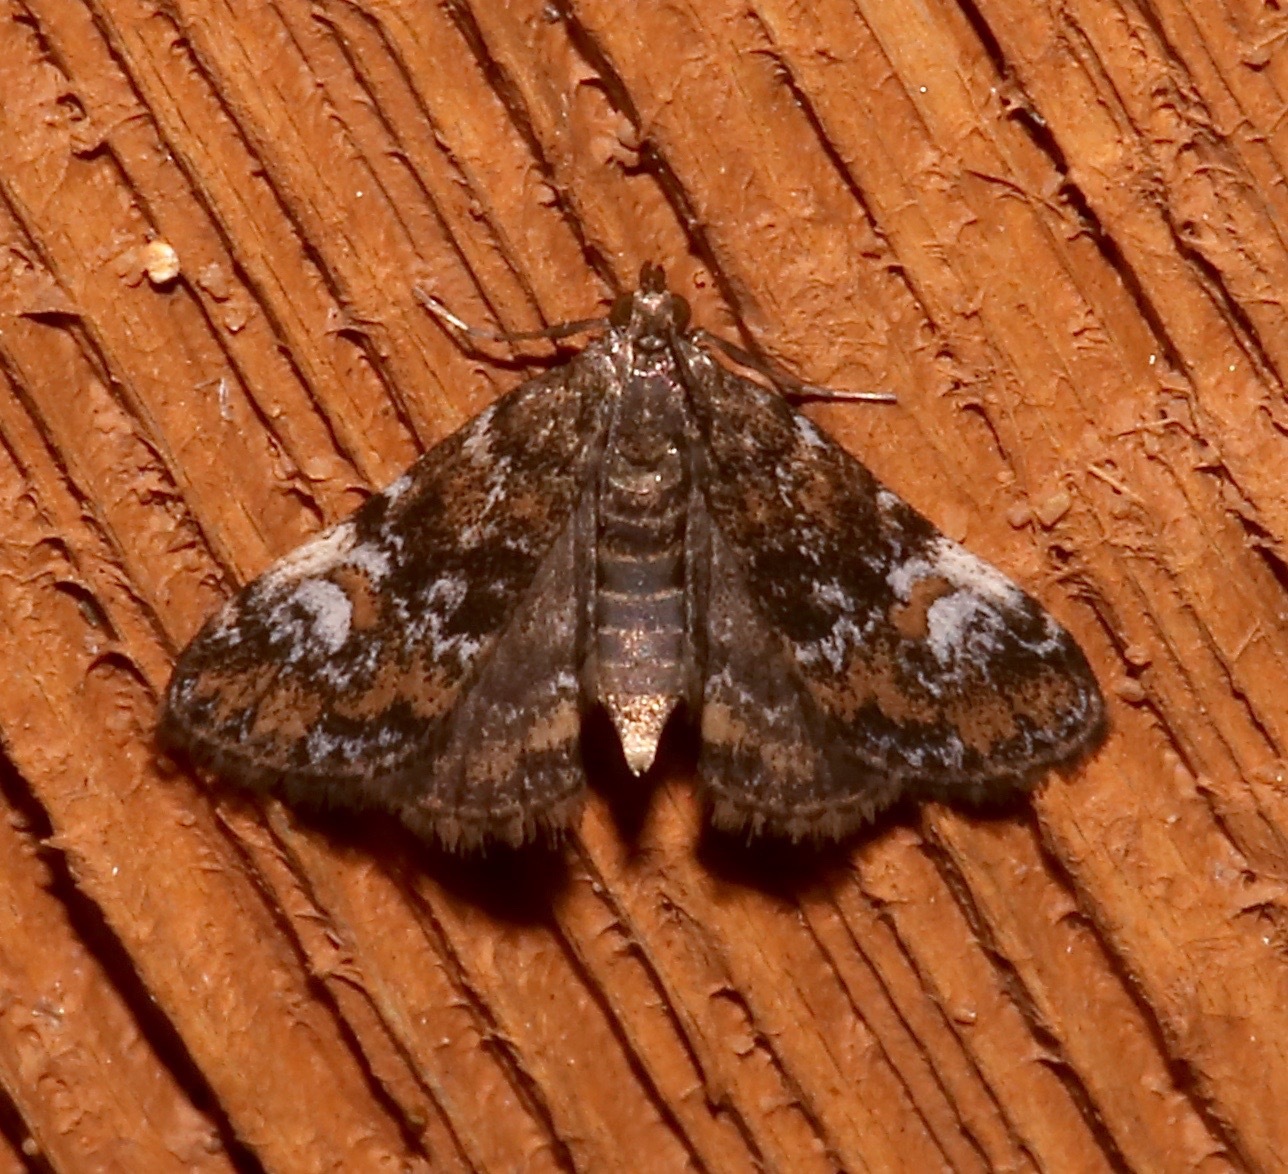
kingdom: Animalia
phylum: Arthropoda
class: Insecta
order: Lepidoptera
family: Crambidae
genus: Elophila
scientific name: Elophila obliteralis
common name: Waterlily leafcutter moth
